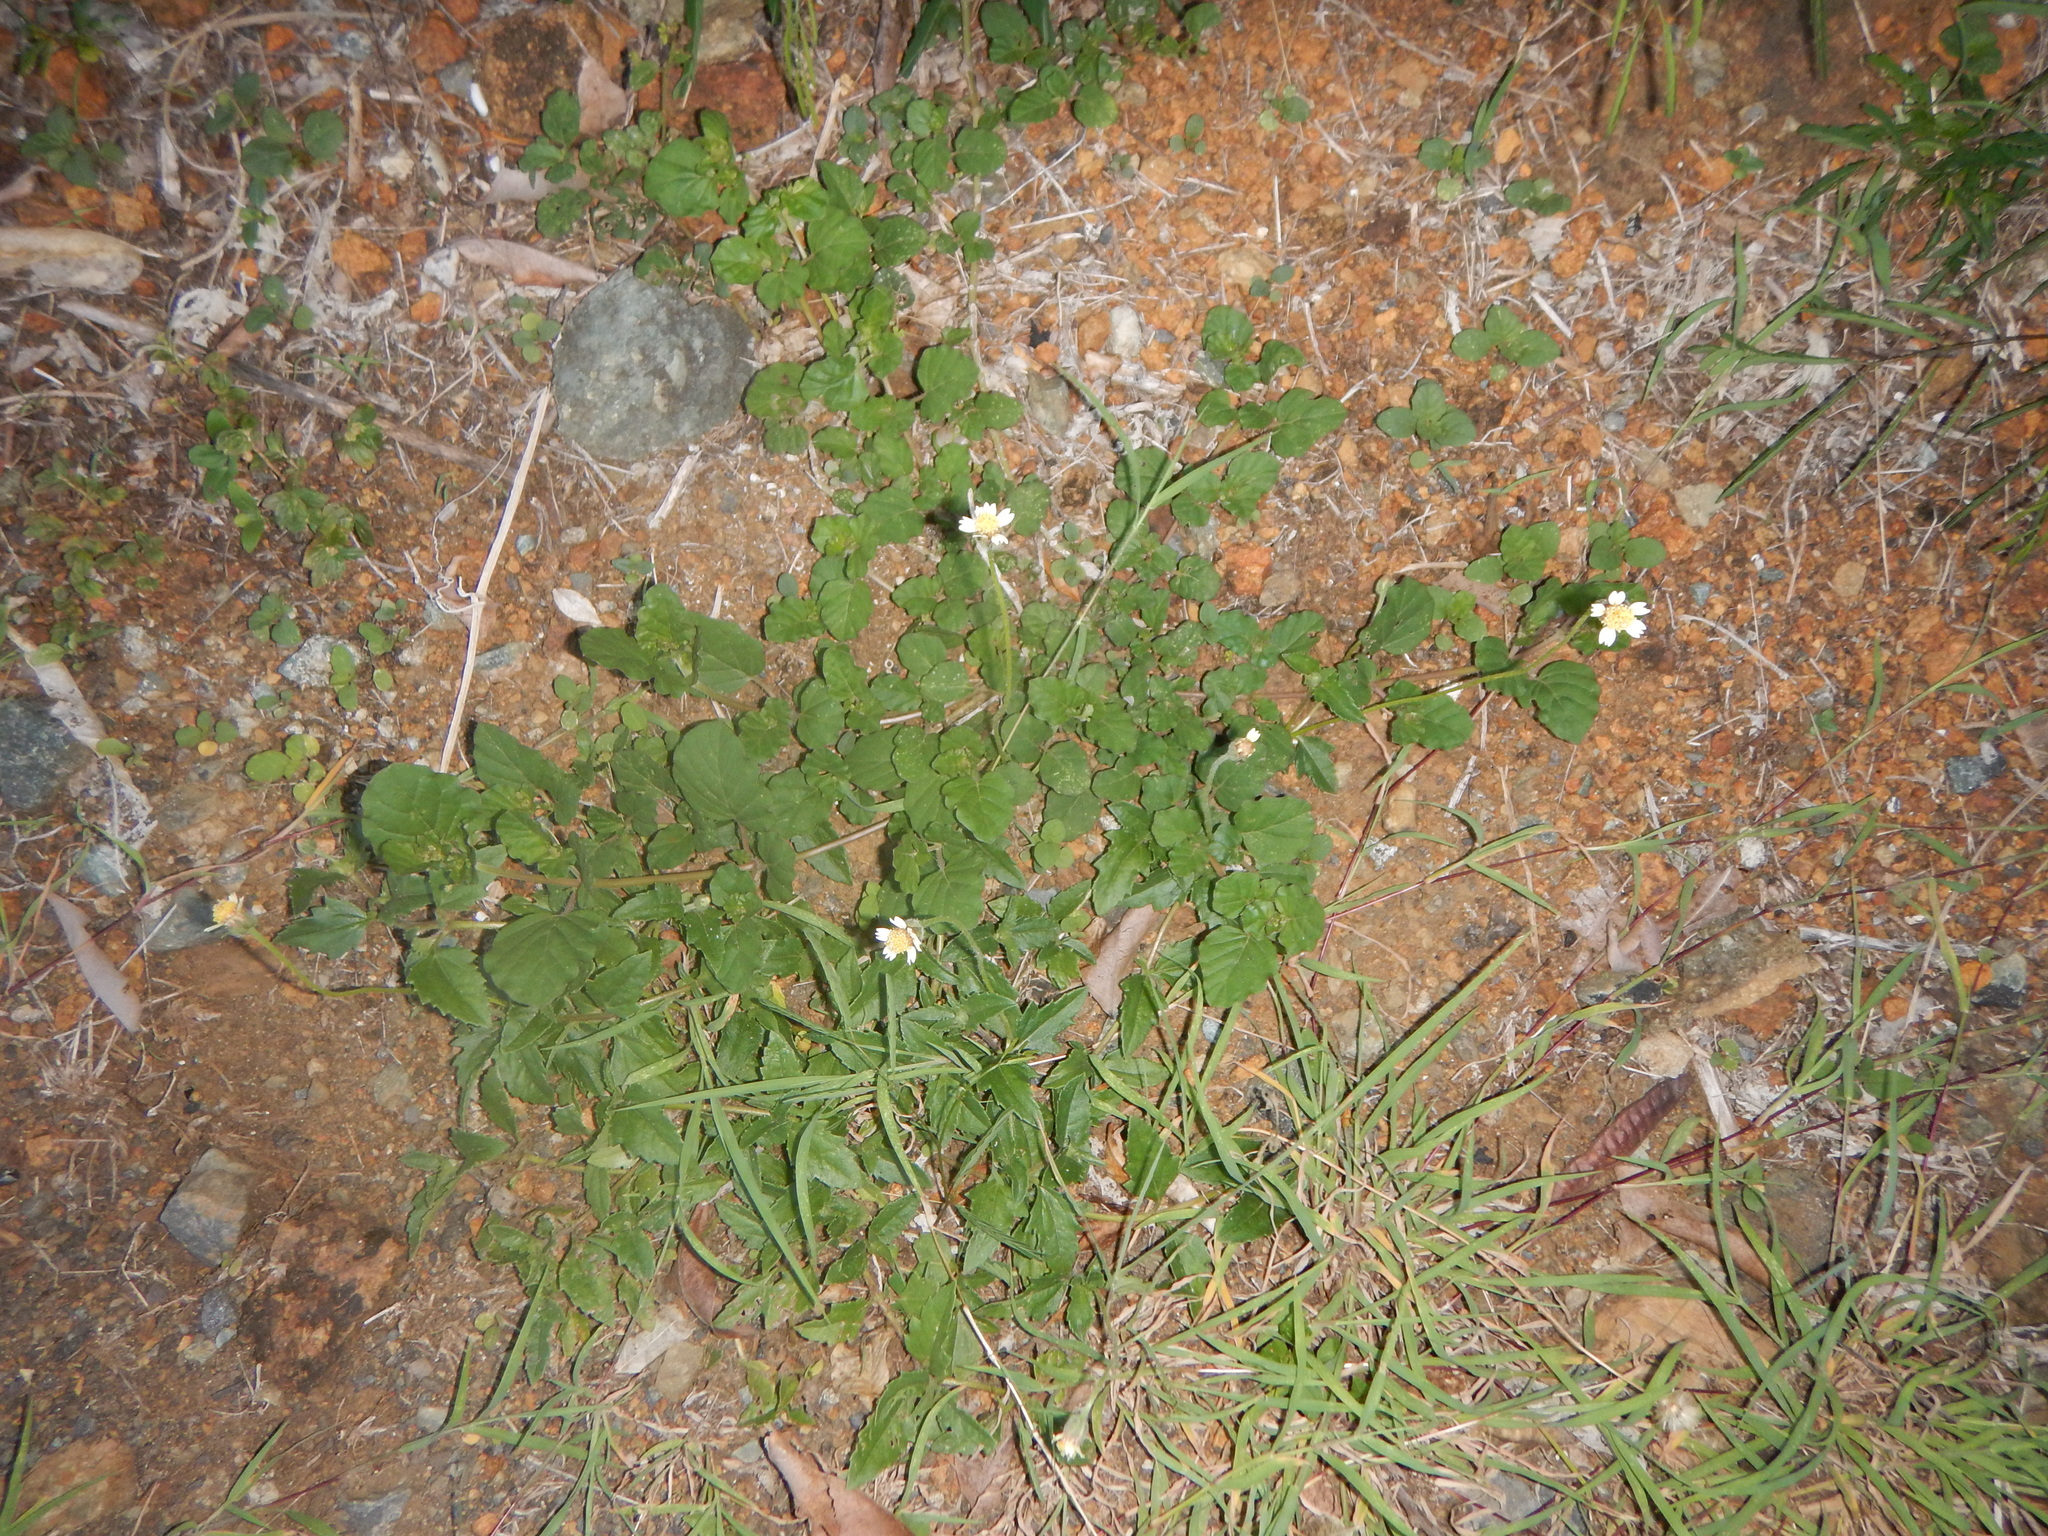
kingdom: Plantae
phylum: Tracheophyta
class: Magnoliopsida
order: Asterales
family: Asteraceae
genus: Tridax
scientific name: Tridax procumbens
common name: Coatbuttons
